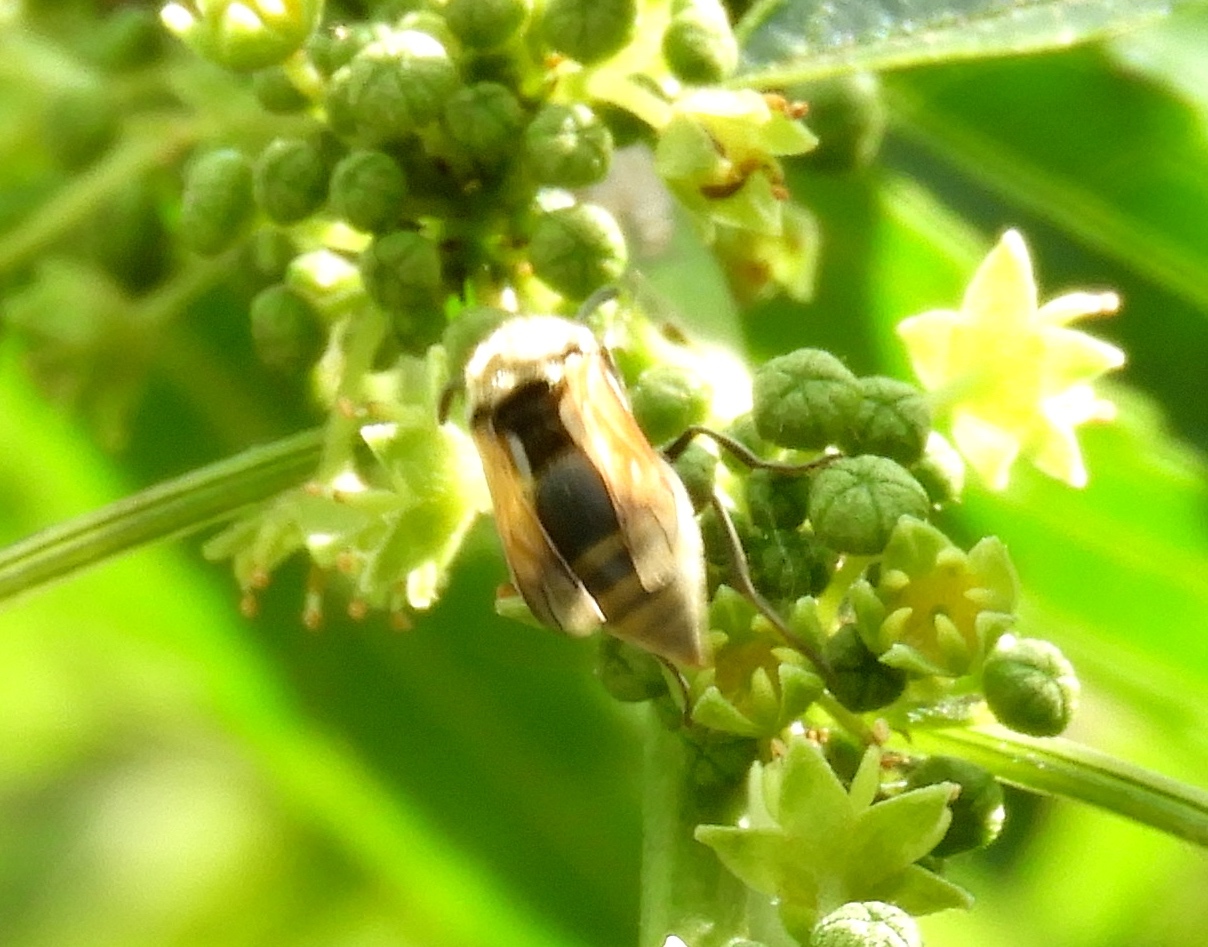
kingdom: Animalia
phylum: Arthropoda
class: Insecta
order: Hymenoptera
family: Vespidae
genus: Brachygastra
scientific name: Brachygastra mellifica
